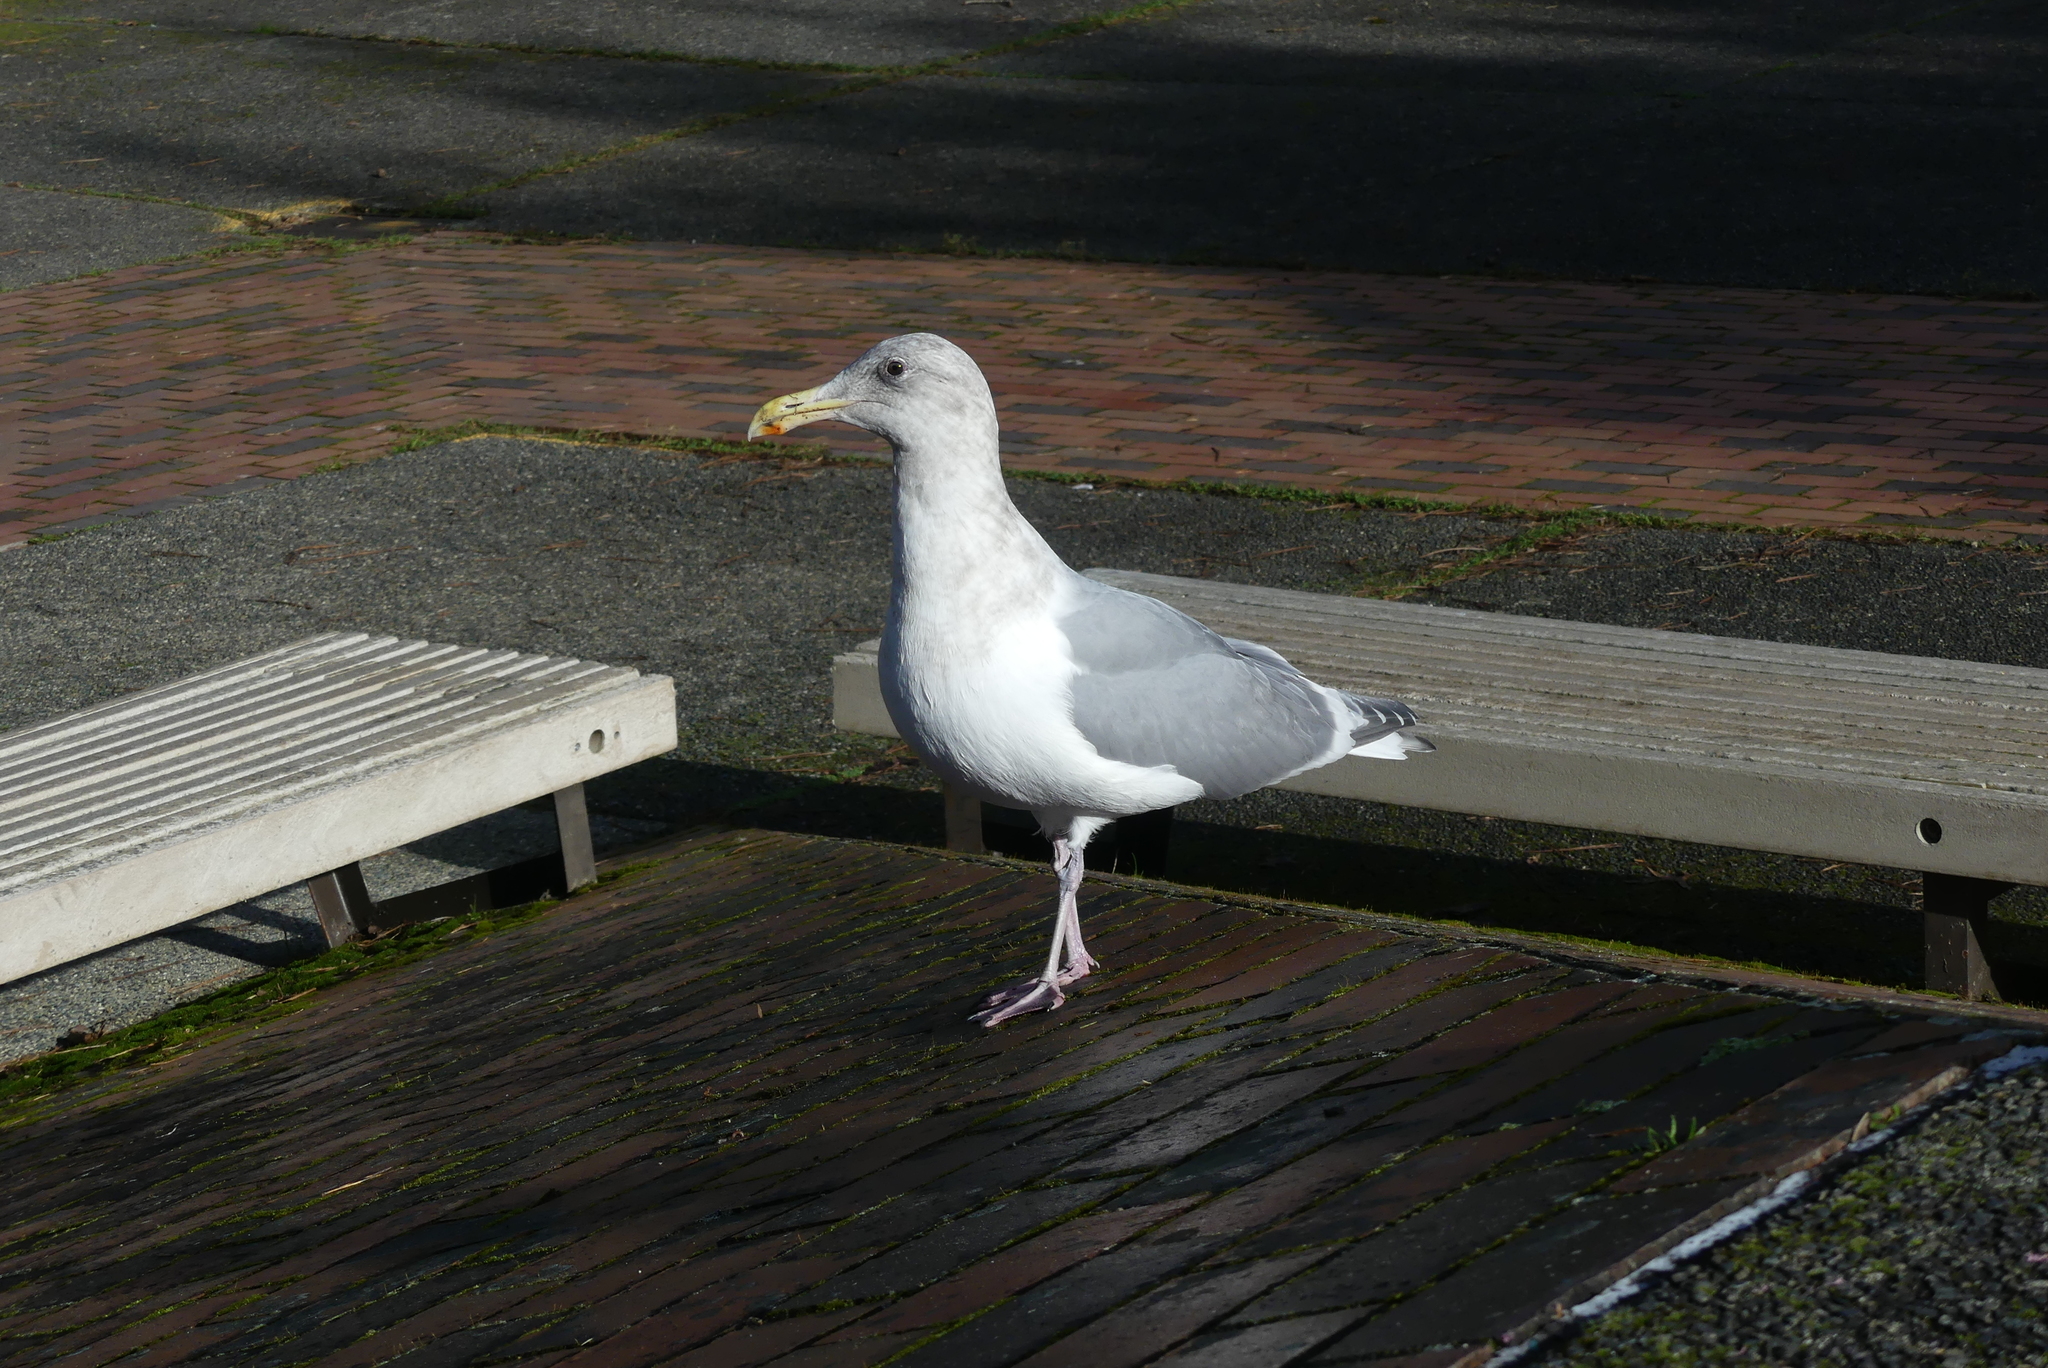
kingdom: Animalia
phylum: Chordata
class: Aves
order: Charadriiformes
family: Laridae
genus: Larus
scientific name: Larus
